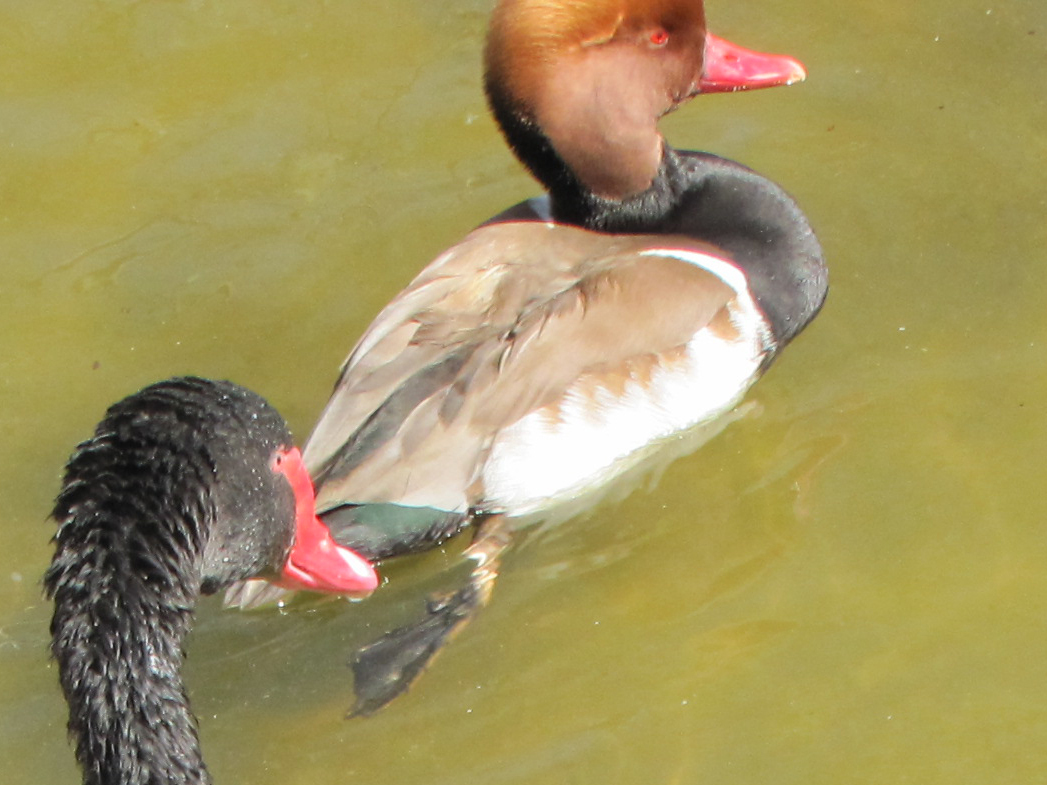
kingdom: Animalia
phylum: Chordata
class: Aves
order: Anseriformes
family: Anatidae
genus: Netta
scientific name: Netta rufina
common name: Red-crested pochard
